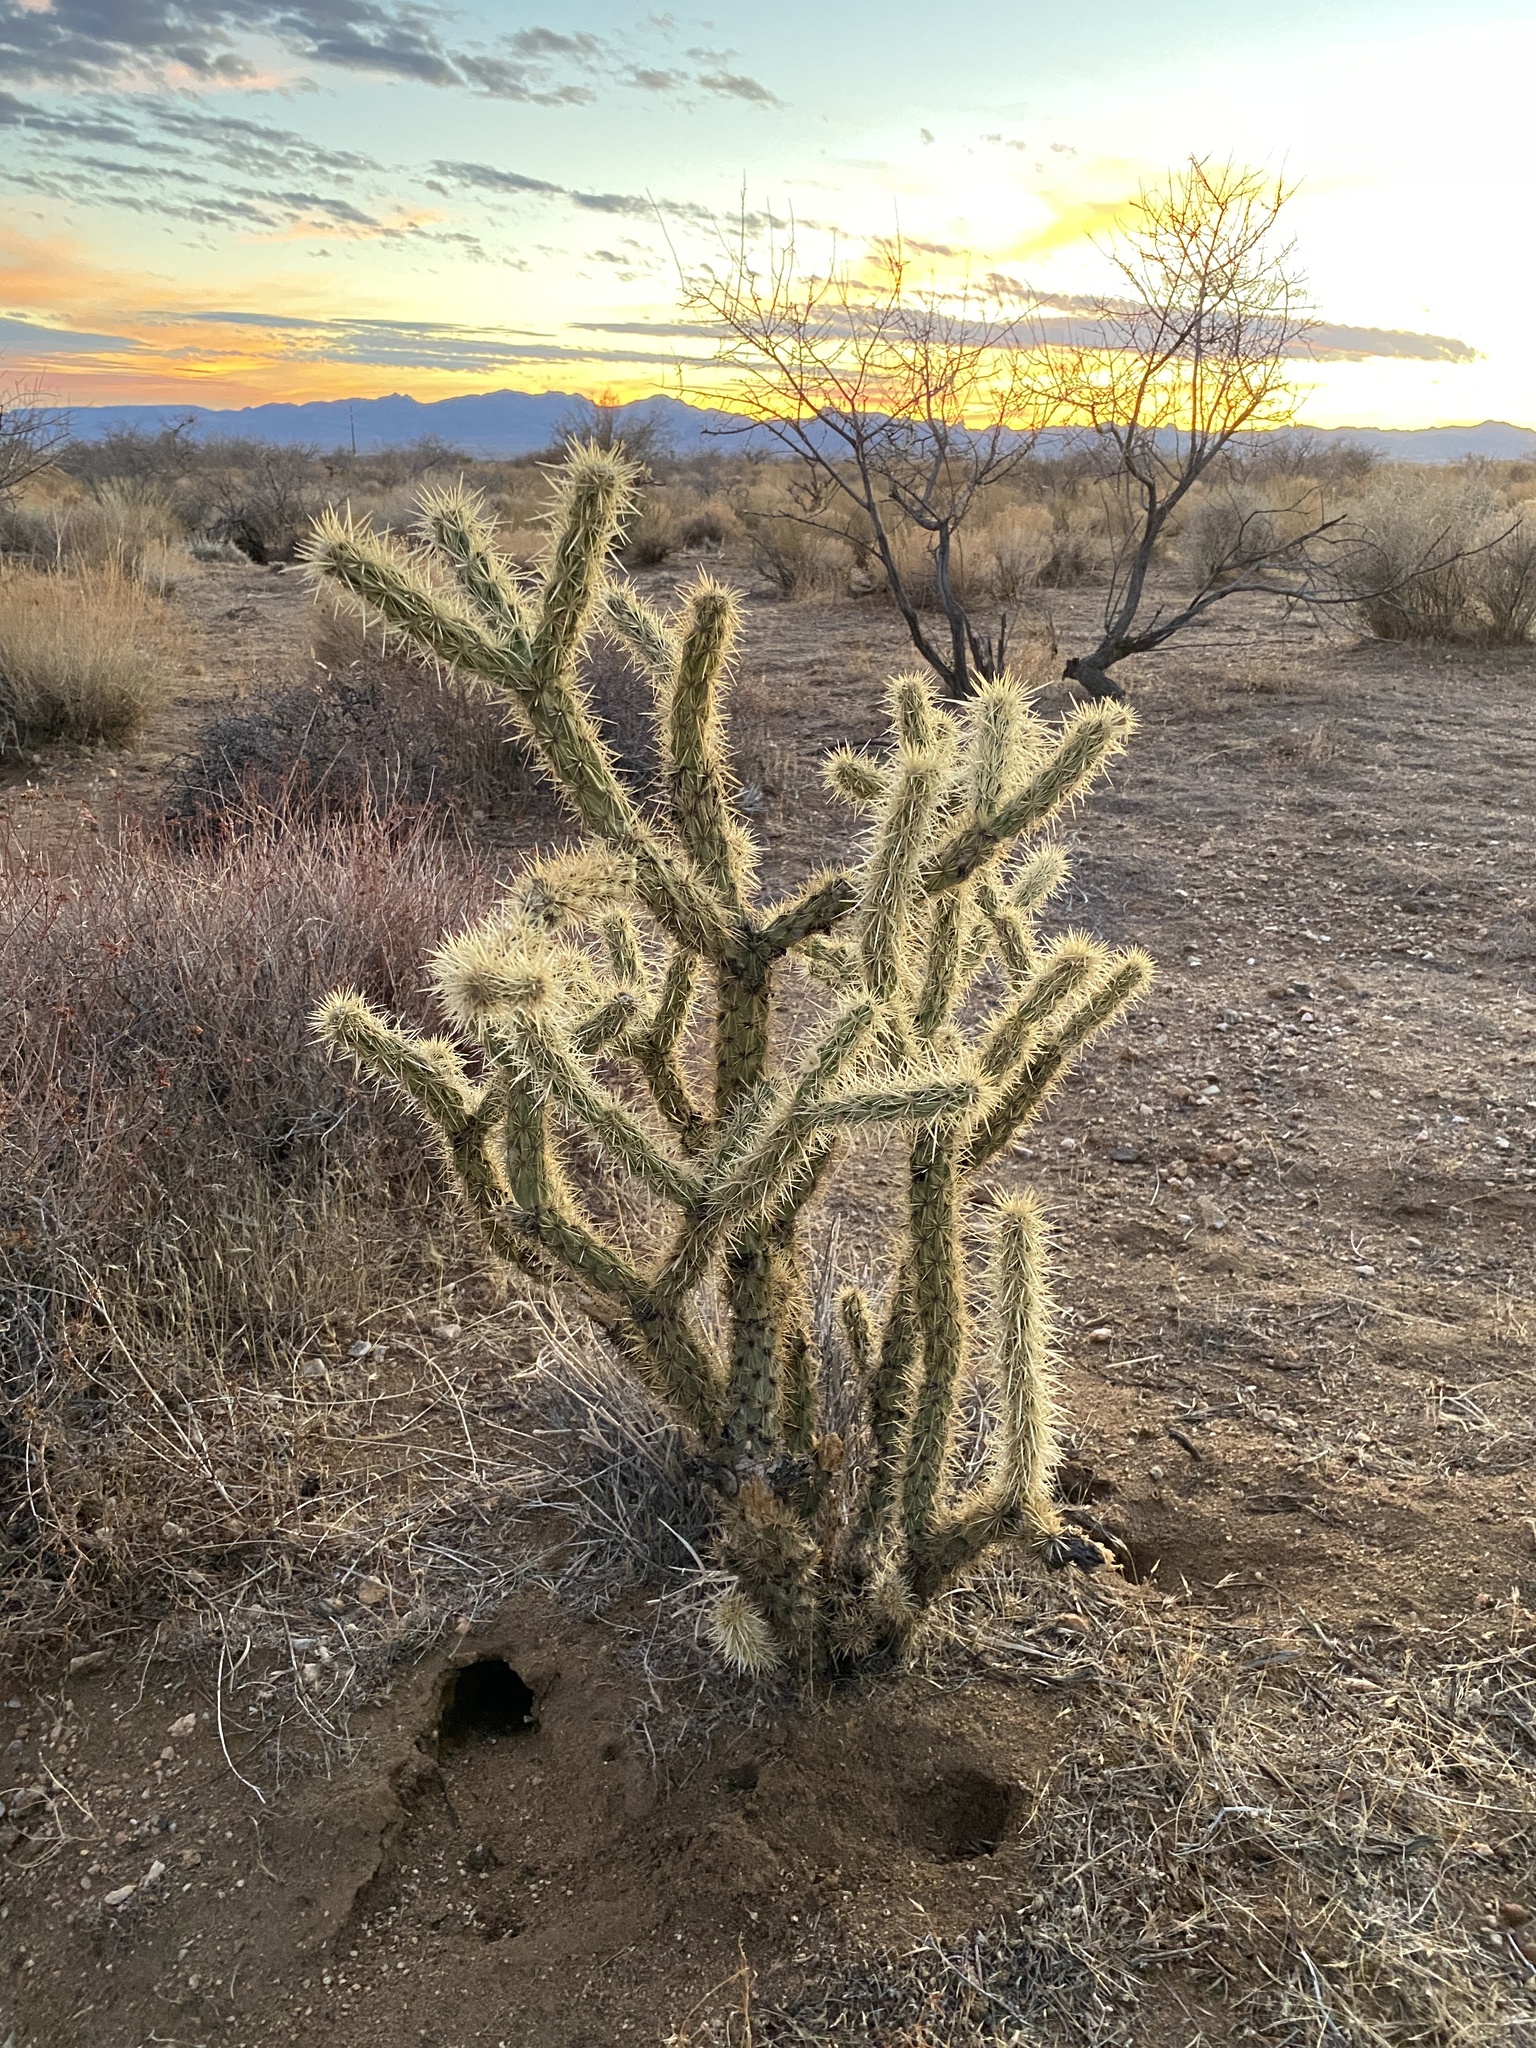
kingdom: Plantae
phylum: Tracheophyta
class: Magnoliopsida
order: Caryophyllales
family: Cactaceae
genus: Cylindropuntia
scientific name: Cylindropuntia acanthocarpa
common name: Buckhorn cholla
